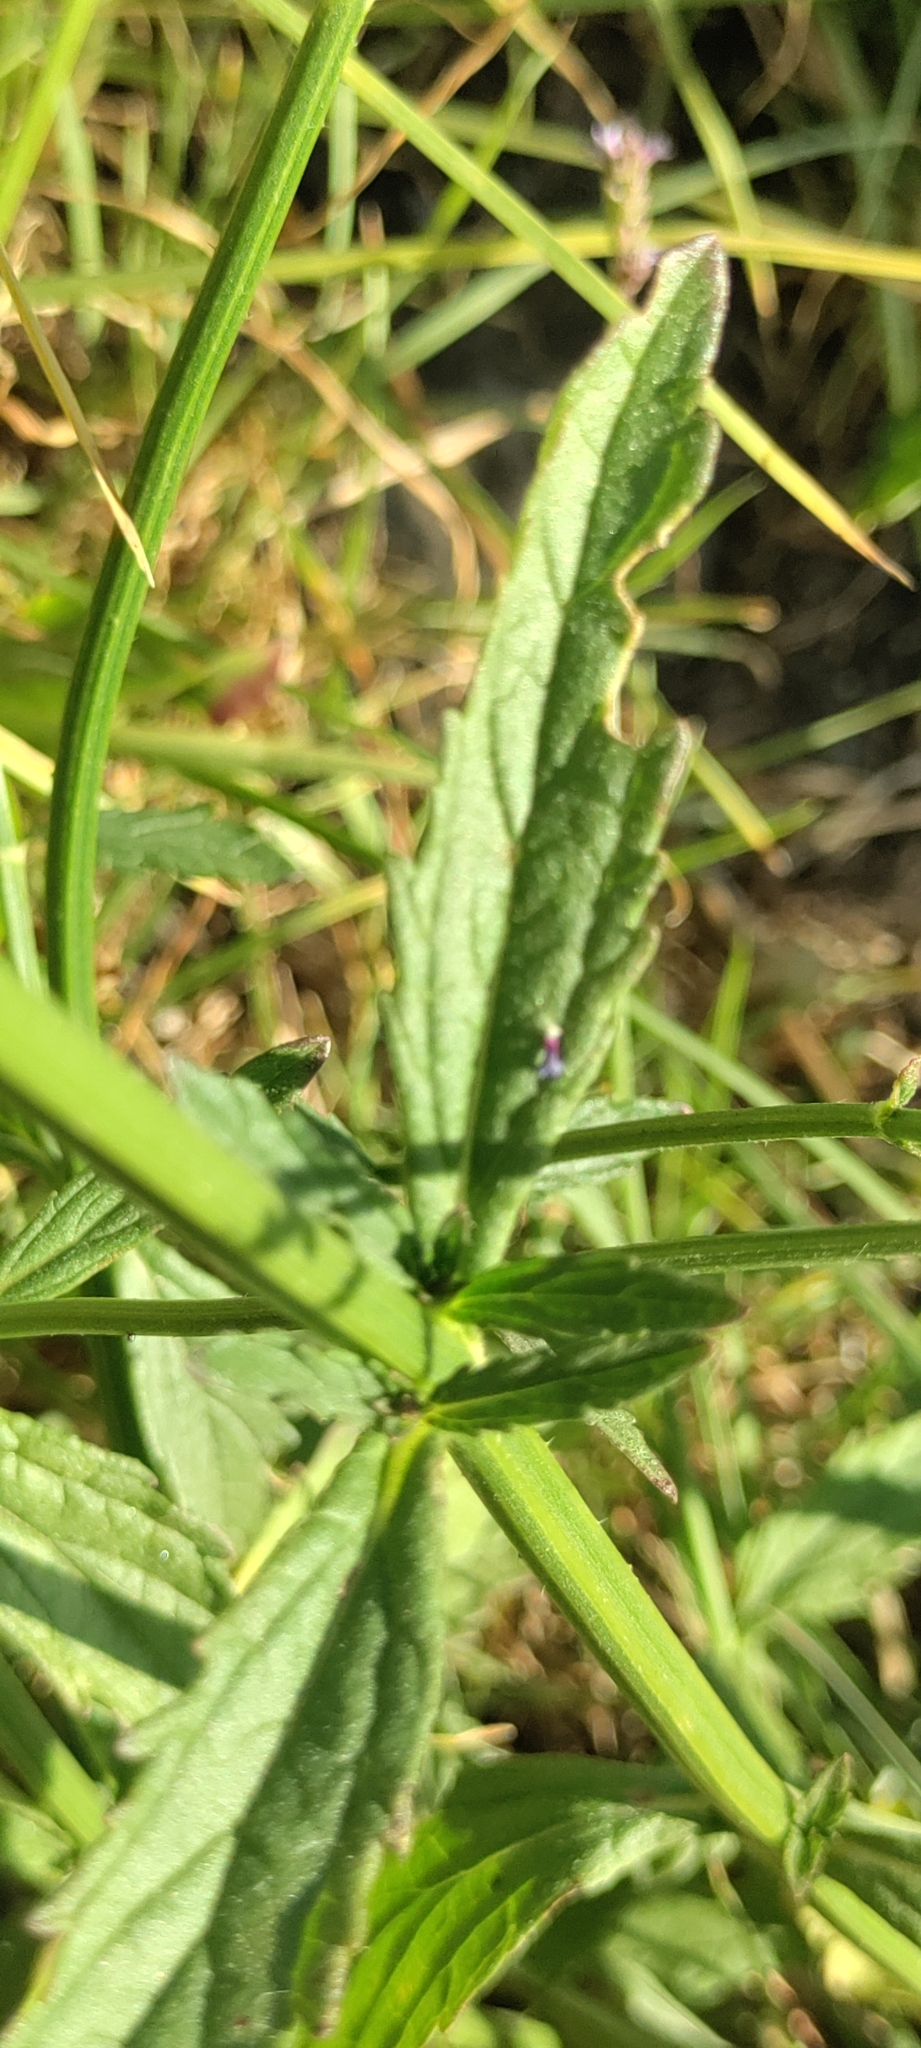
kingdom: Plantae
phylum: Tracheophyta
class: Magnoliopsida
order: Lamiales
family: Verbenaceae
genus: Verbena
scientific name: Verbena litoralis
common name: Seashore vervain
